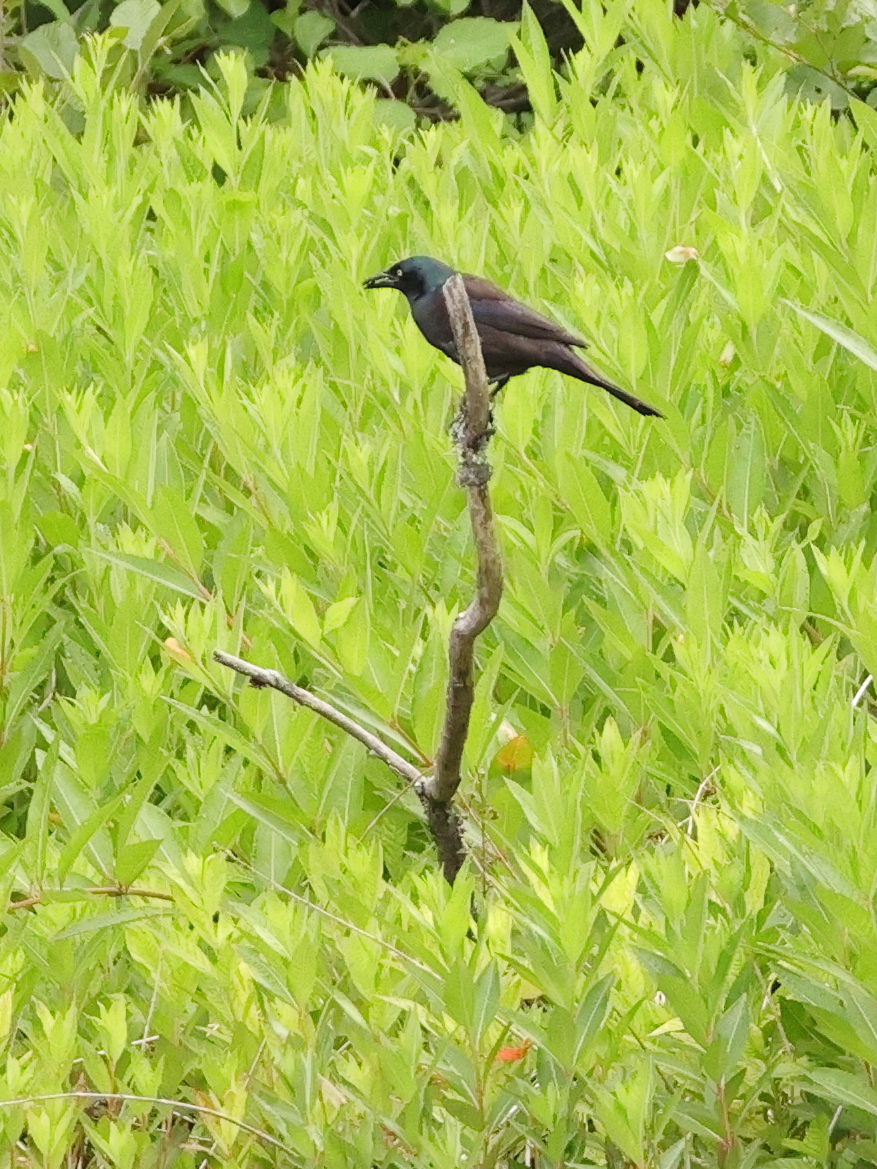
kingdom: Animalia
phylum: Chordata
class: Aves
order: Passeriformes
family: Icteridae
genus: Quiscalus
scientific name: Quiscalus quiscula
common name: Common grackle
